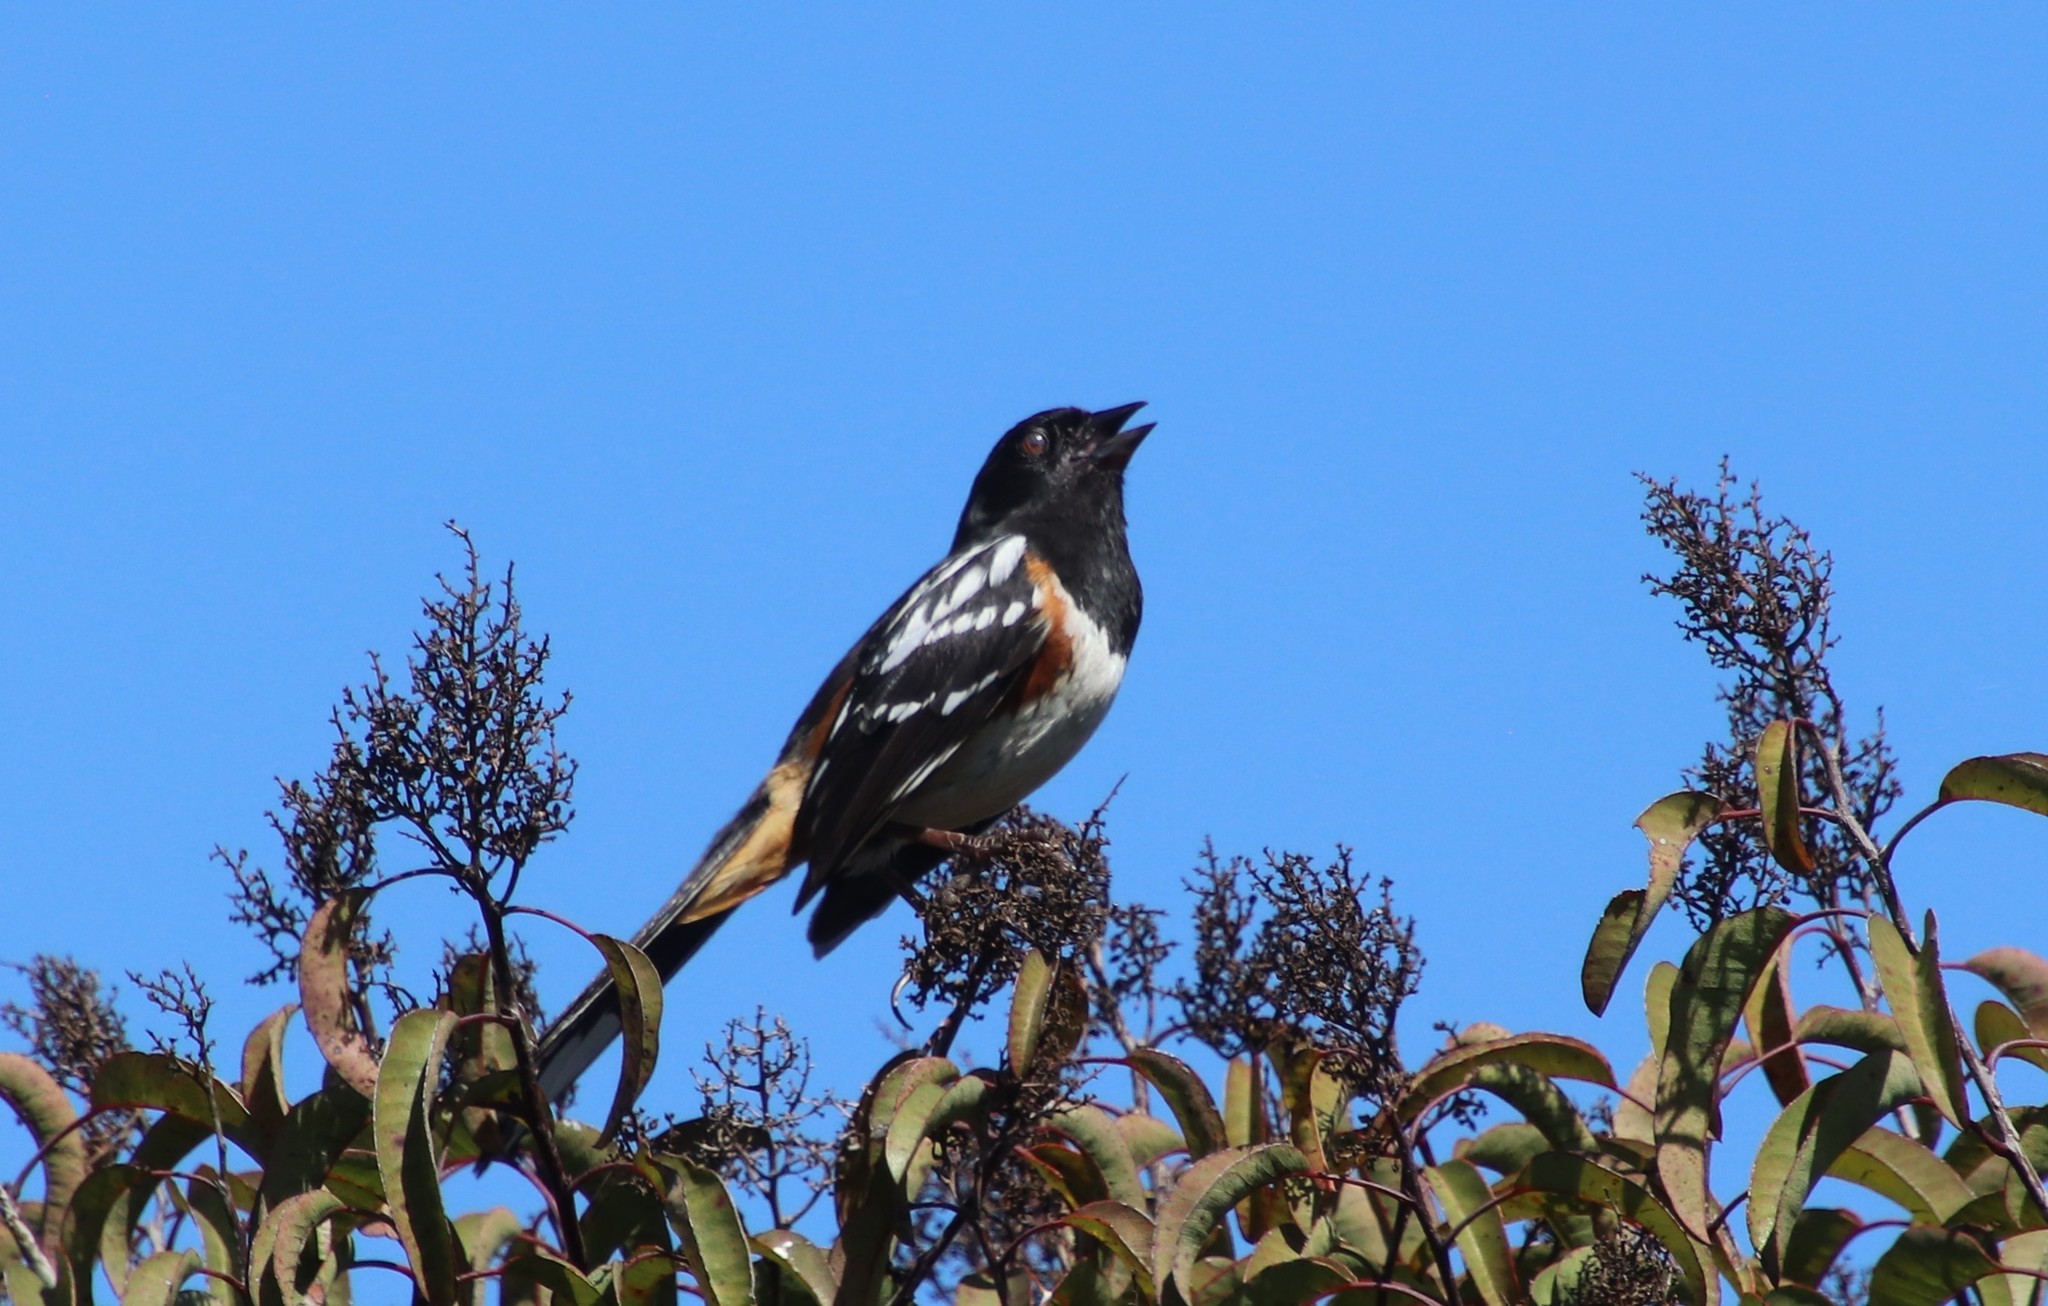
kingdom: Animalia
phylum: Chordata
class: Aves
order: Passeriformes
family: Passerellidae
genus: Pipilo
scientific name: Pipilo maculatus
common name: Spotted towhee
